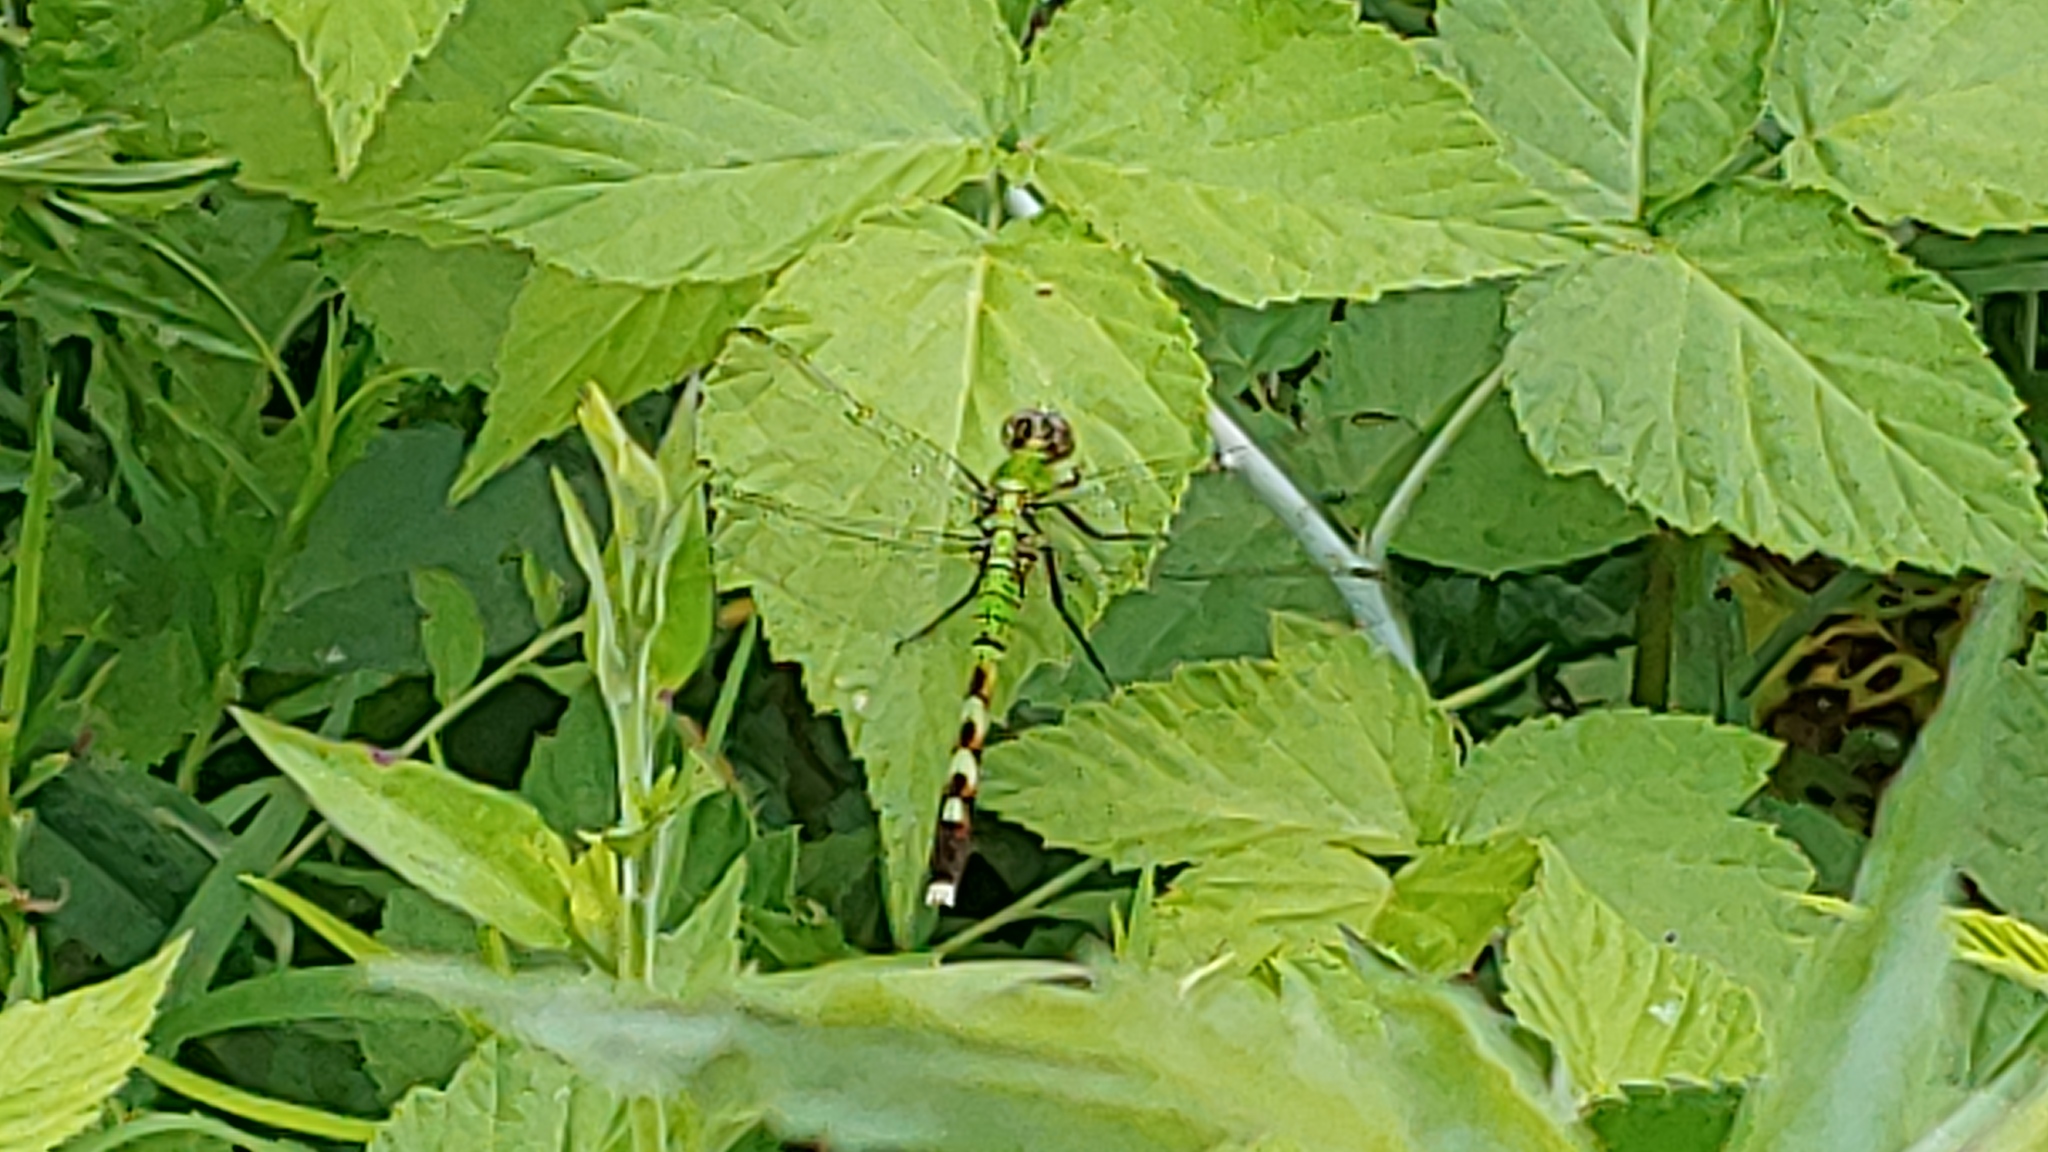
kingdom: Animalia
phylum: Arthropoda
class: Insecta
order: Odonata
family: Libellulidae
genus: Erythemis
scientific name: Erythemis simplicicollis
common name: Eastern pondhawk
